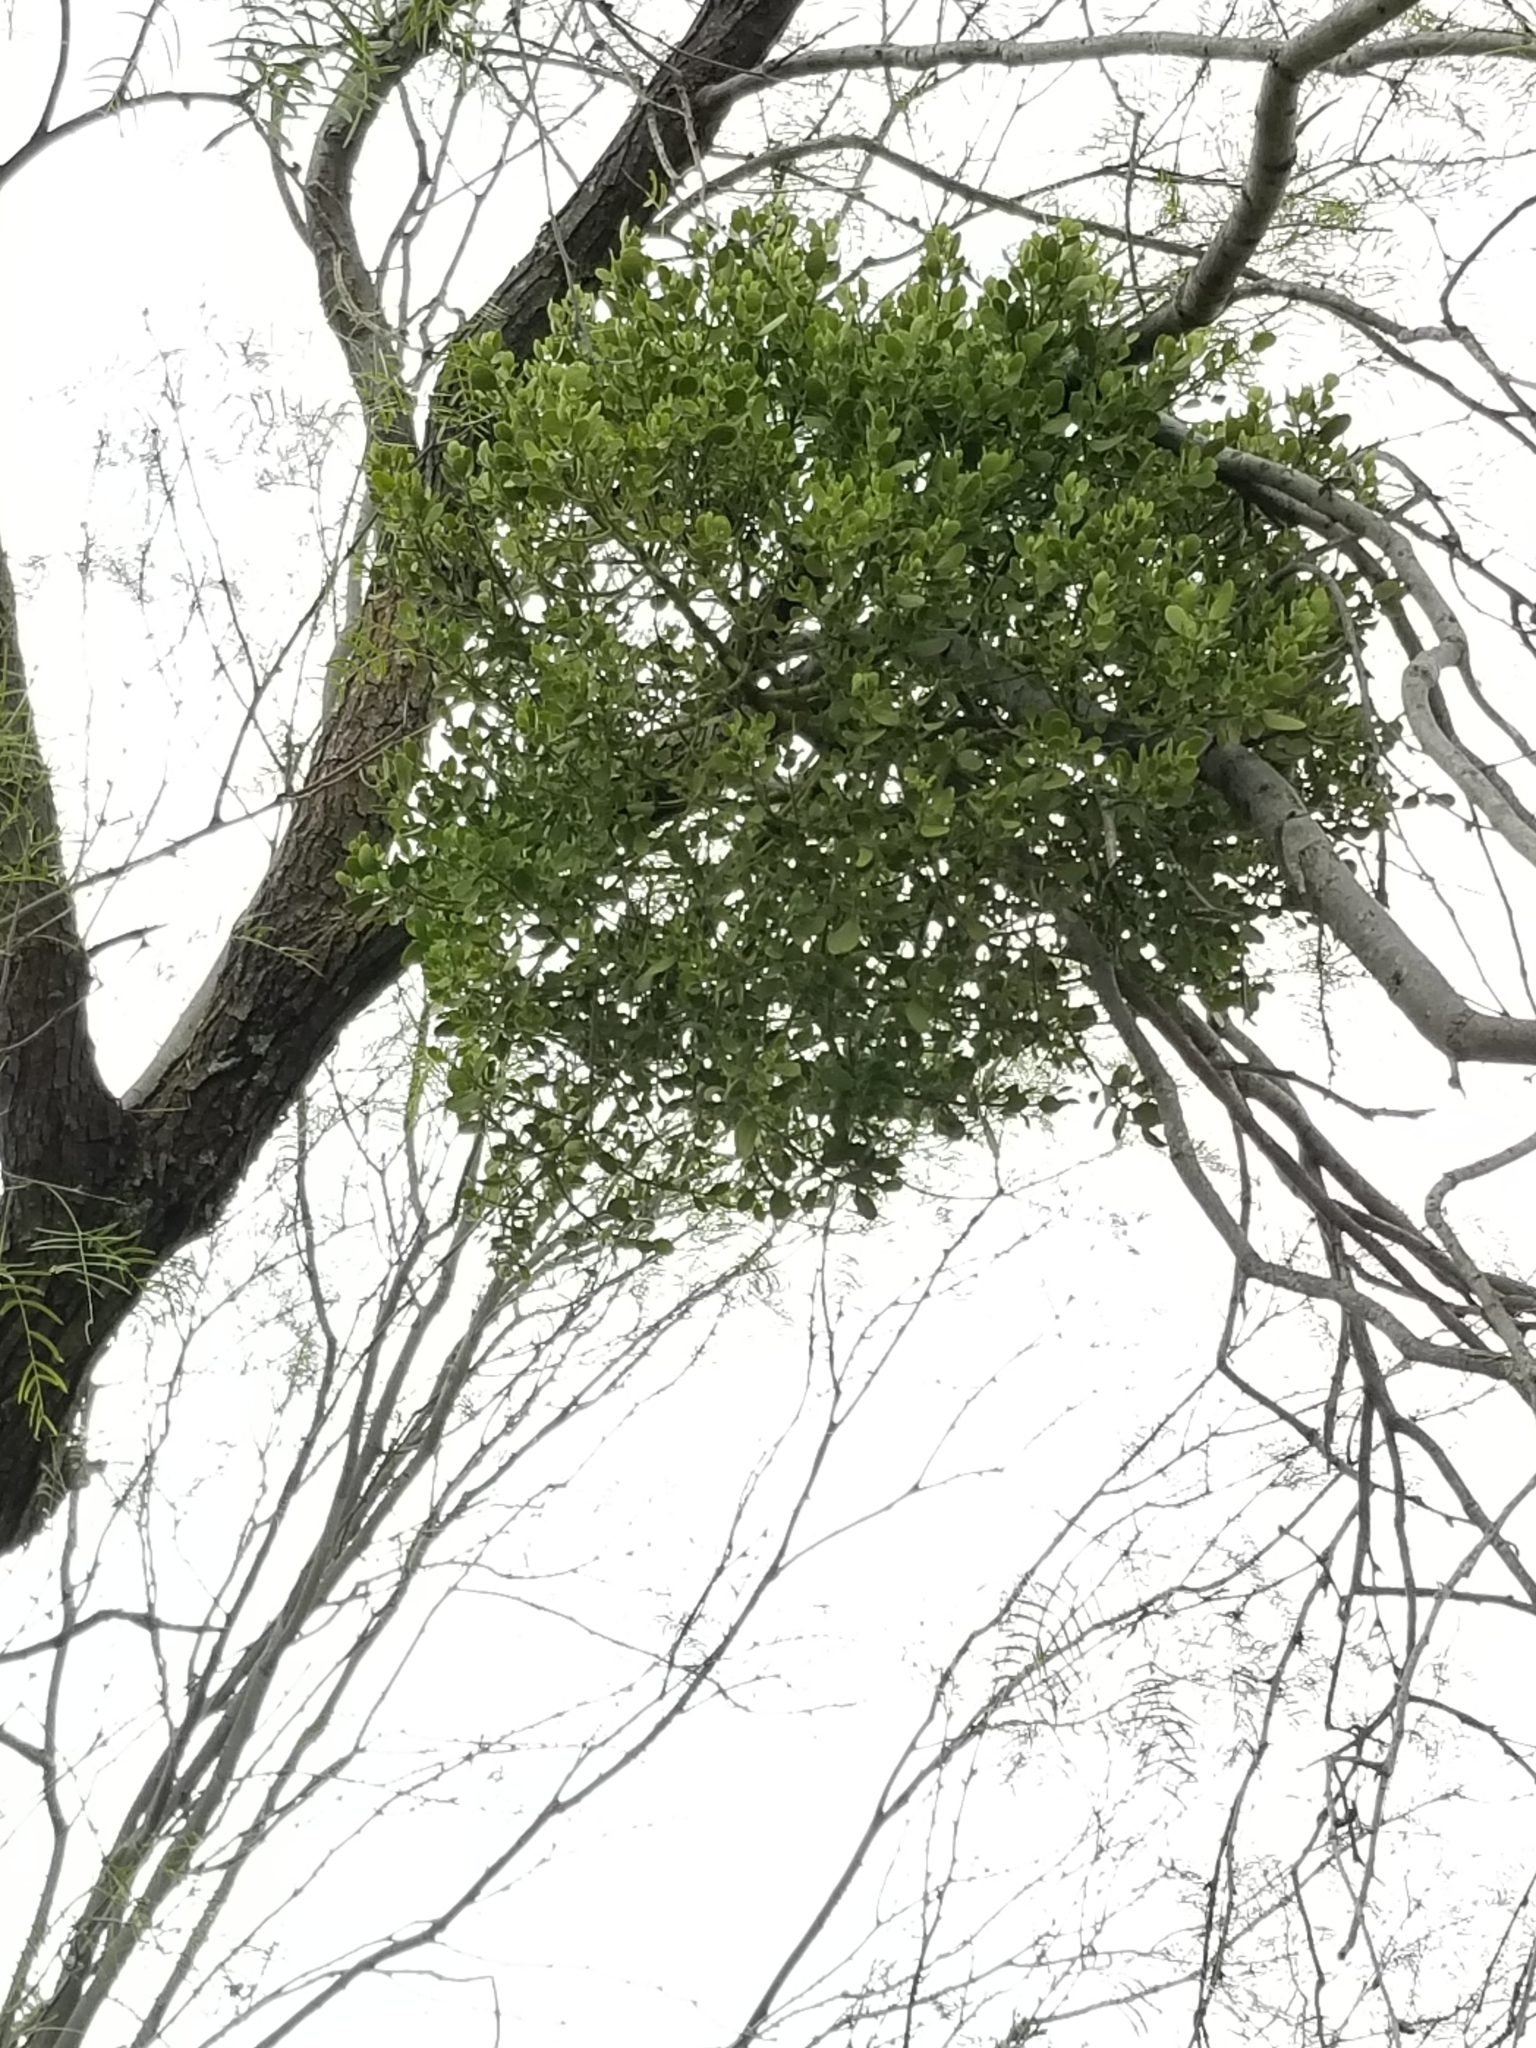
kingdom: Plantae
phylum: Tracheophyta
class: Magnoliopsida
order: Santalales
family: Viscaceae
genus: Phoradendron
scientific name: Phoradendron leucarpum
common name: Pacific mistletoe
